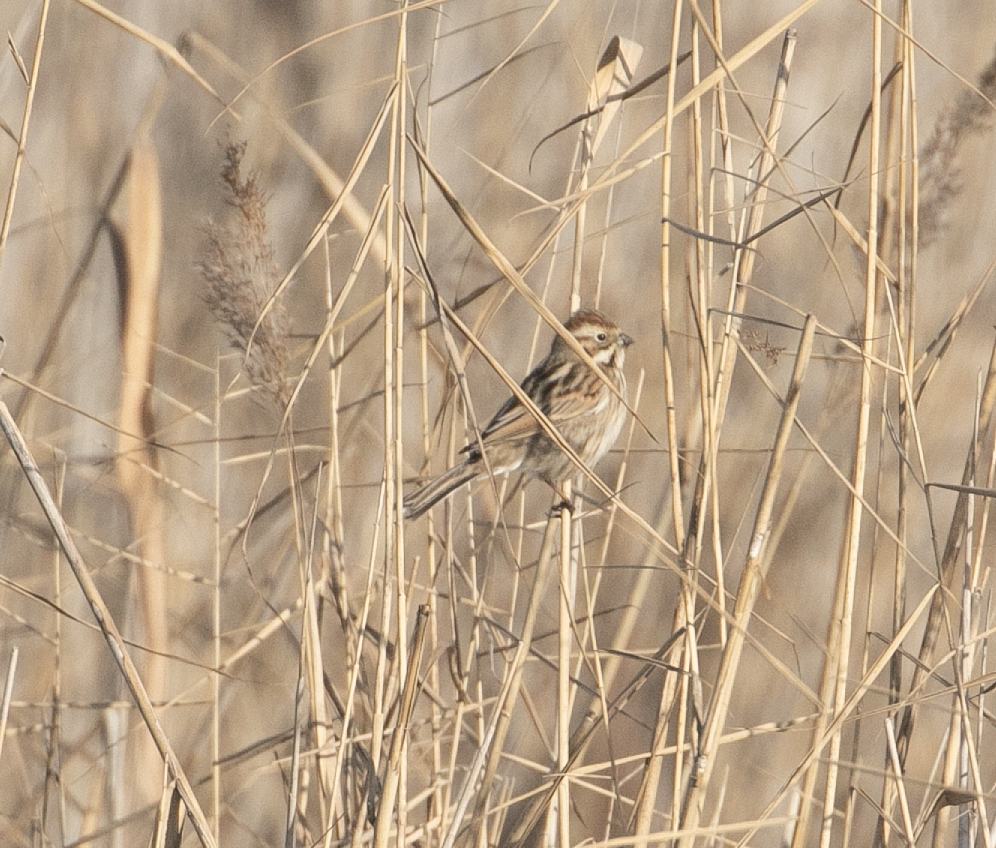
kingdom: Animalia
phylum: Chordata
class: Aves
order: Passeriformes
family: Emberizidae
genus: Emberiza
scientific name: Emberiza schoeniclus
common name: Reed bunting
